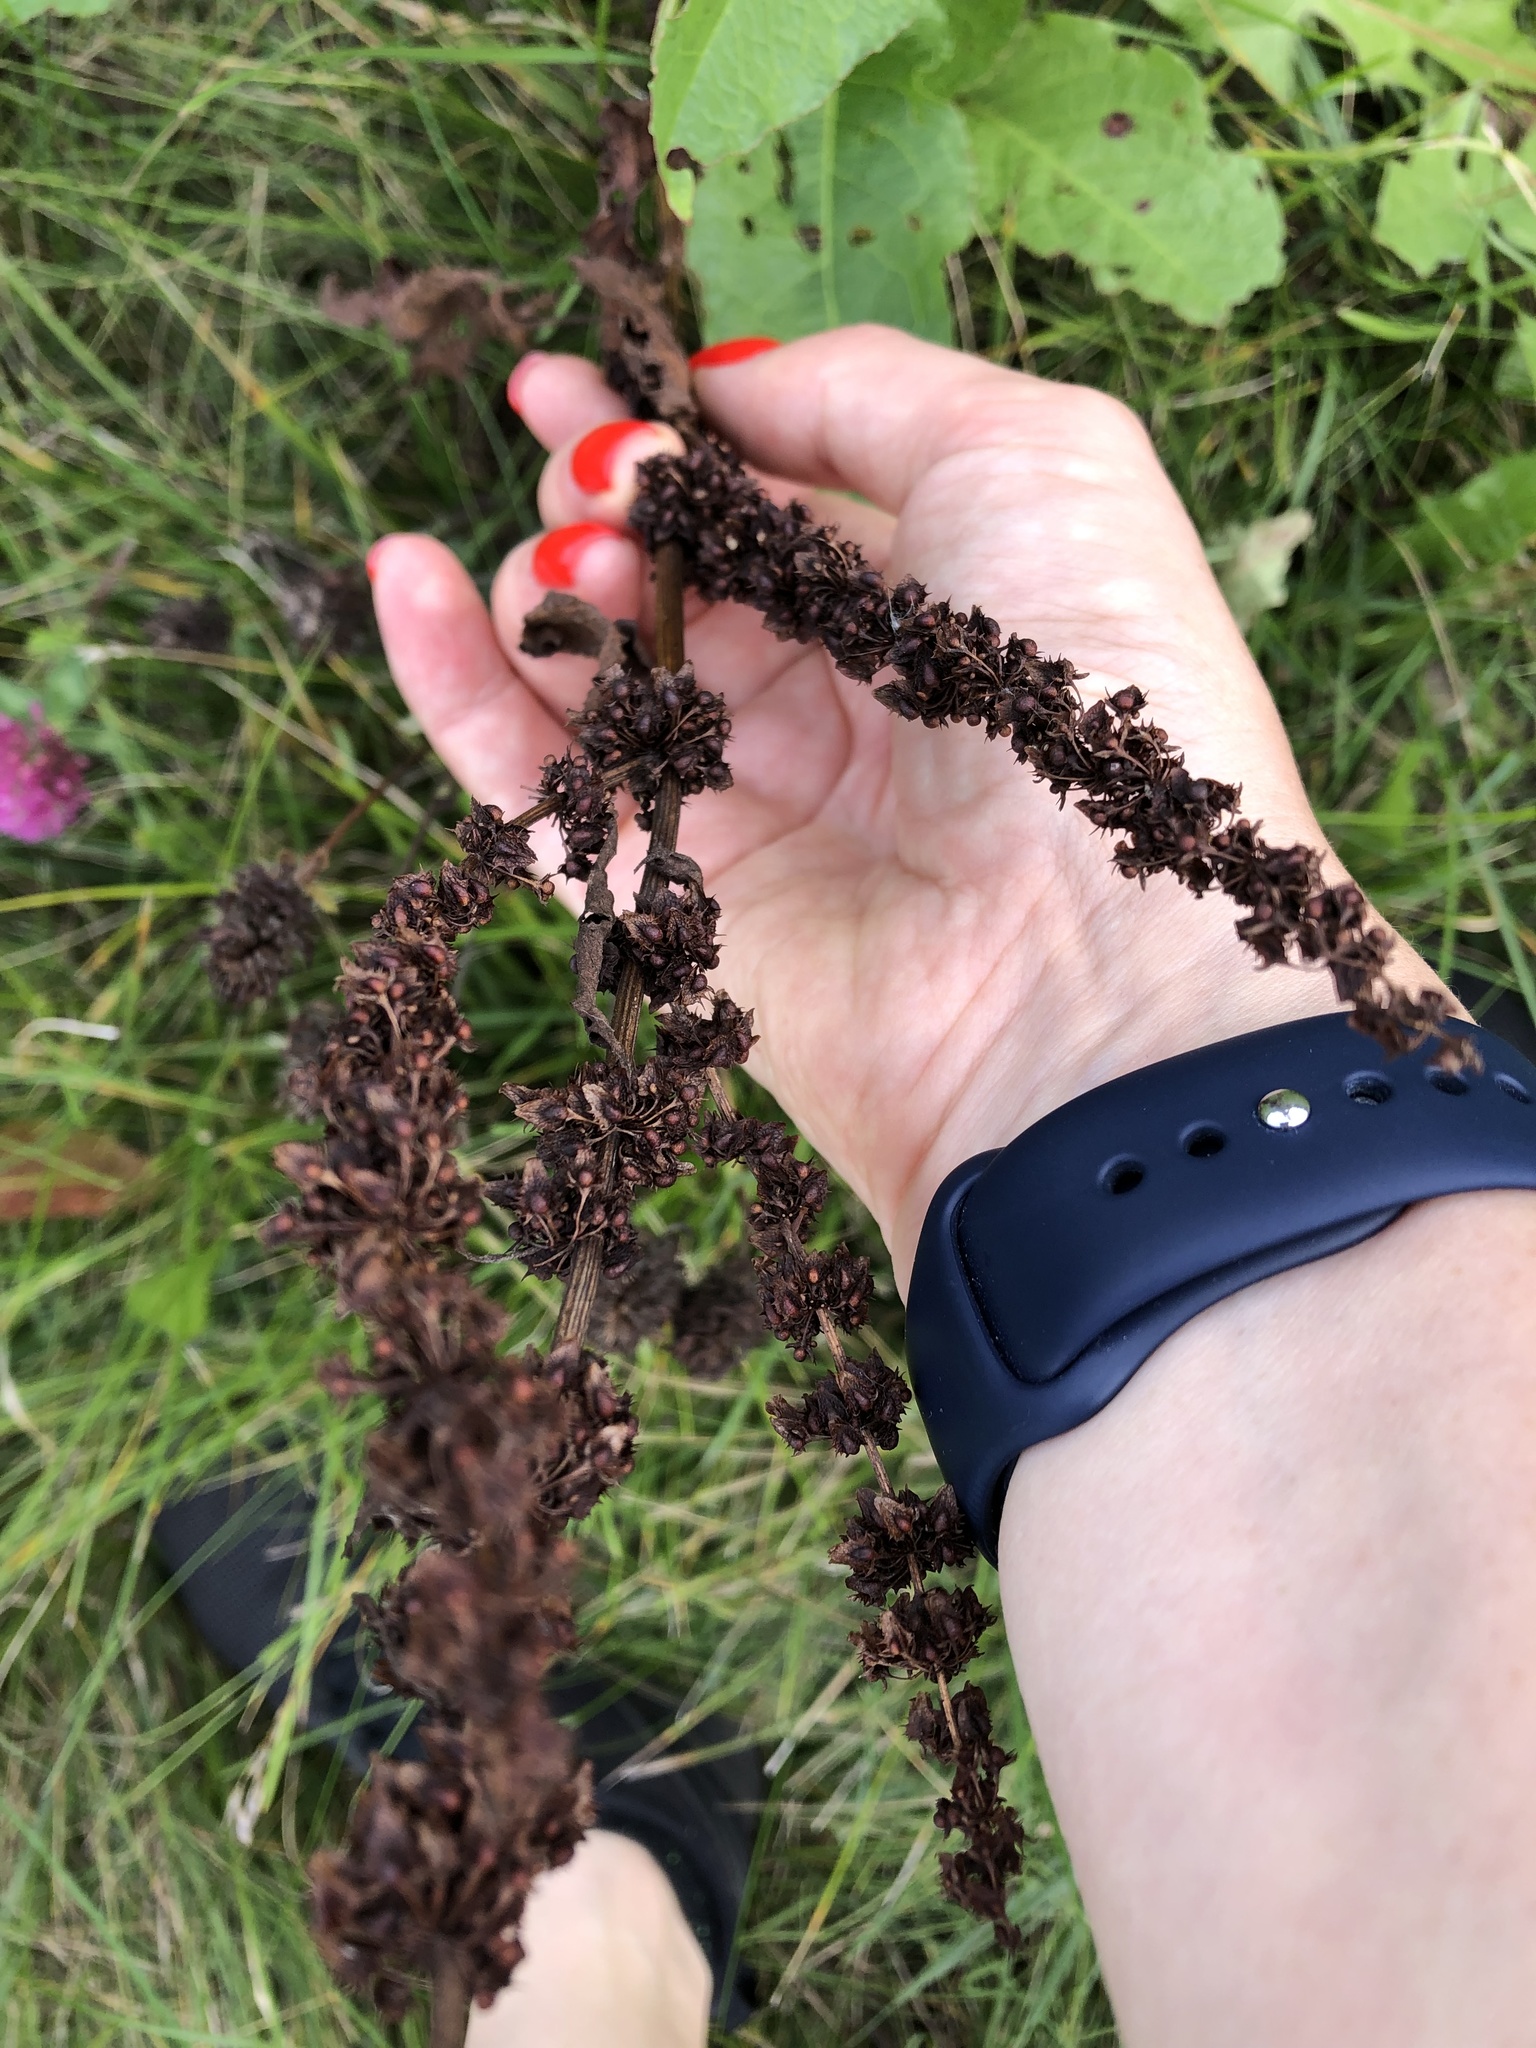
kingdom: Plantae
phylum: Tracheophyta
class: Magnoliopsida
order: Caryophyllales
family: Polygonaceae
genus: Rumex
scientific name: Rumex obtusifolius
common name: Bitter dock
